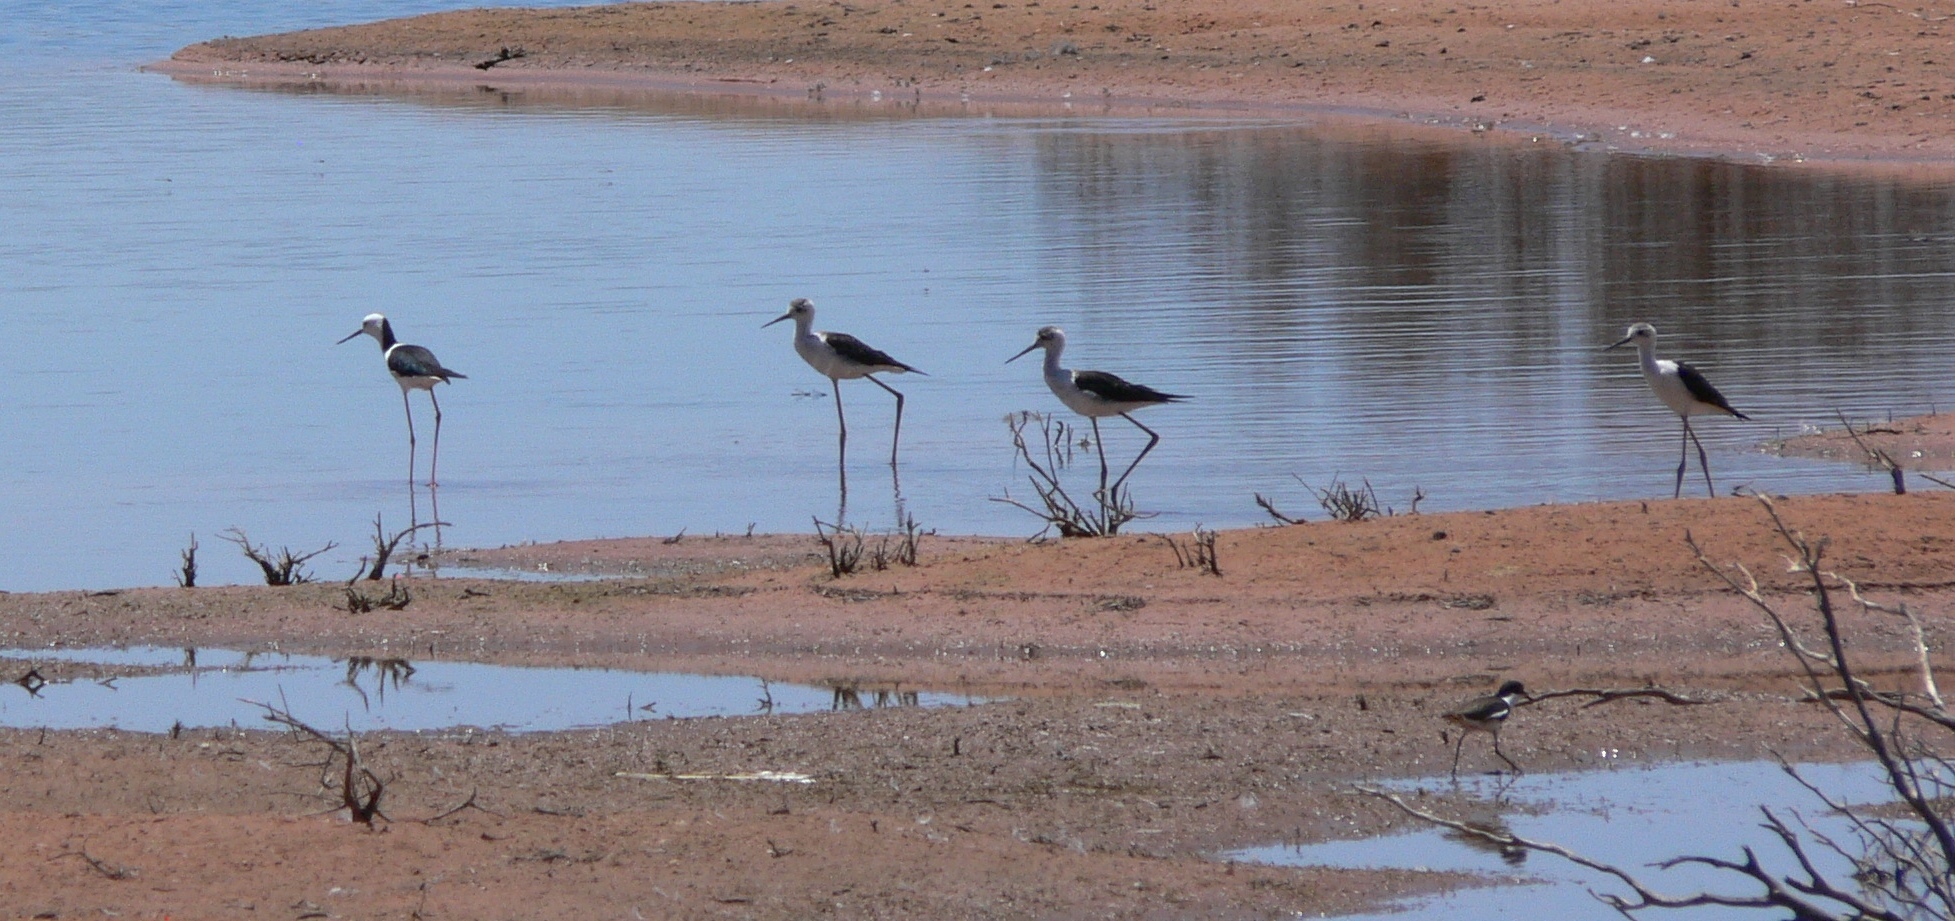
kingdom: Animalia
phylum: Chordata
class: Aves
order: Charadriiformes
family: Recurvirostridae
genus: Himantopus
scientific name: Himantopus leucocephalus
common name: White-headed stilt
